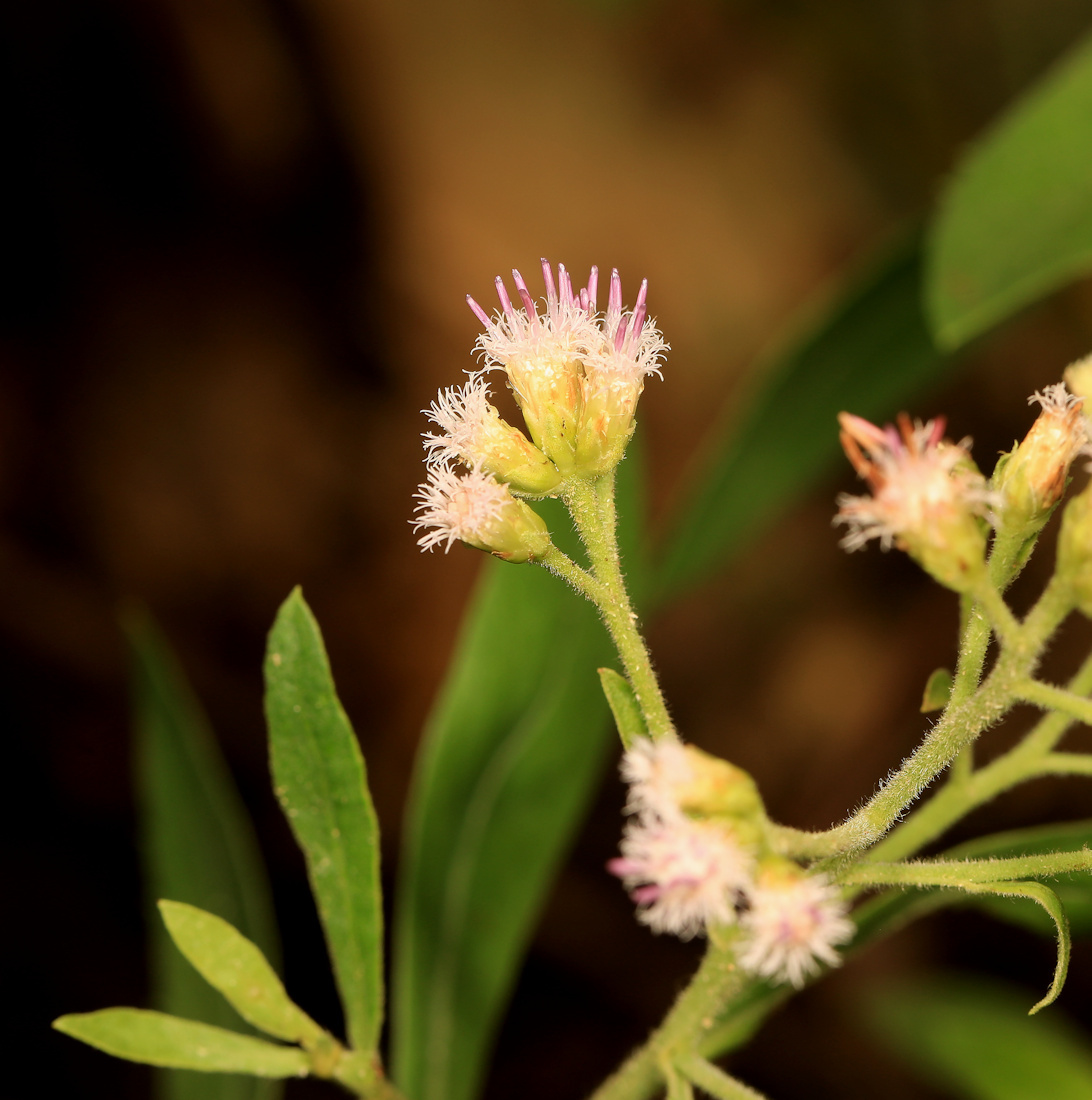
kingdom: Plantae
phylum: Tracheophyta
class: Magnoliopsida
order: Asterales
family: Asteraceae
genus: Pluchea
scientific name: Pluchea bojeri
